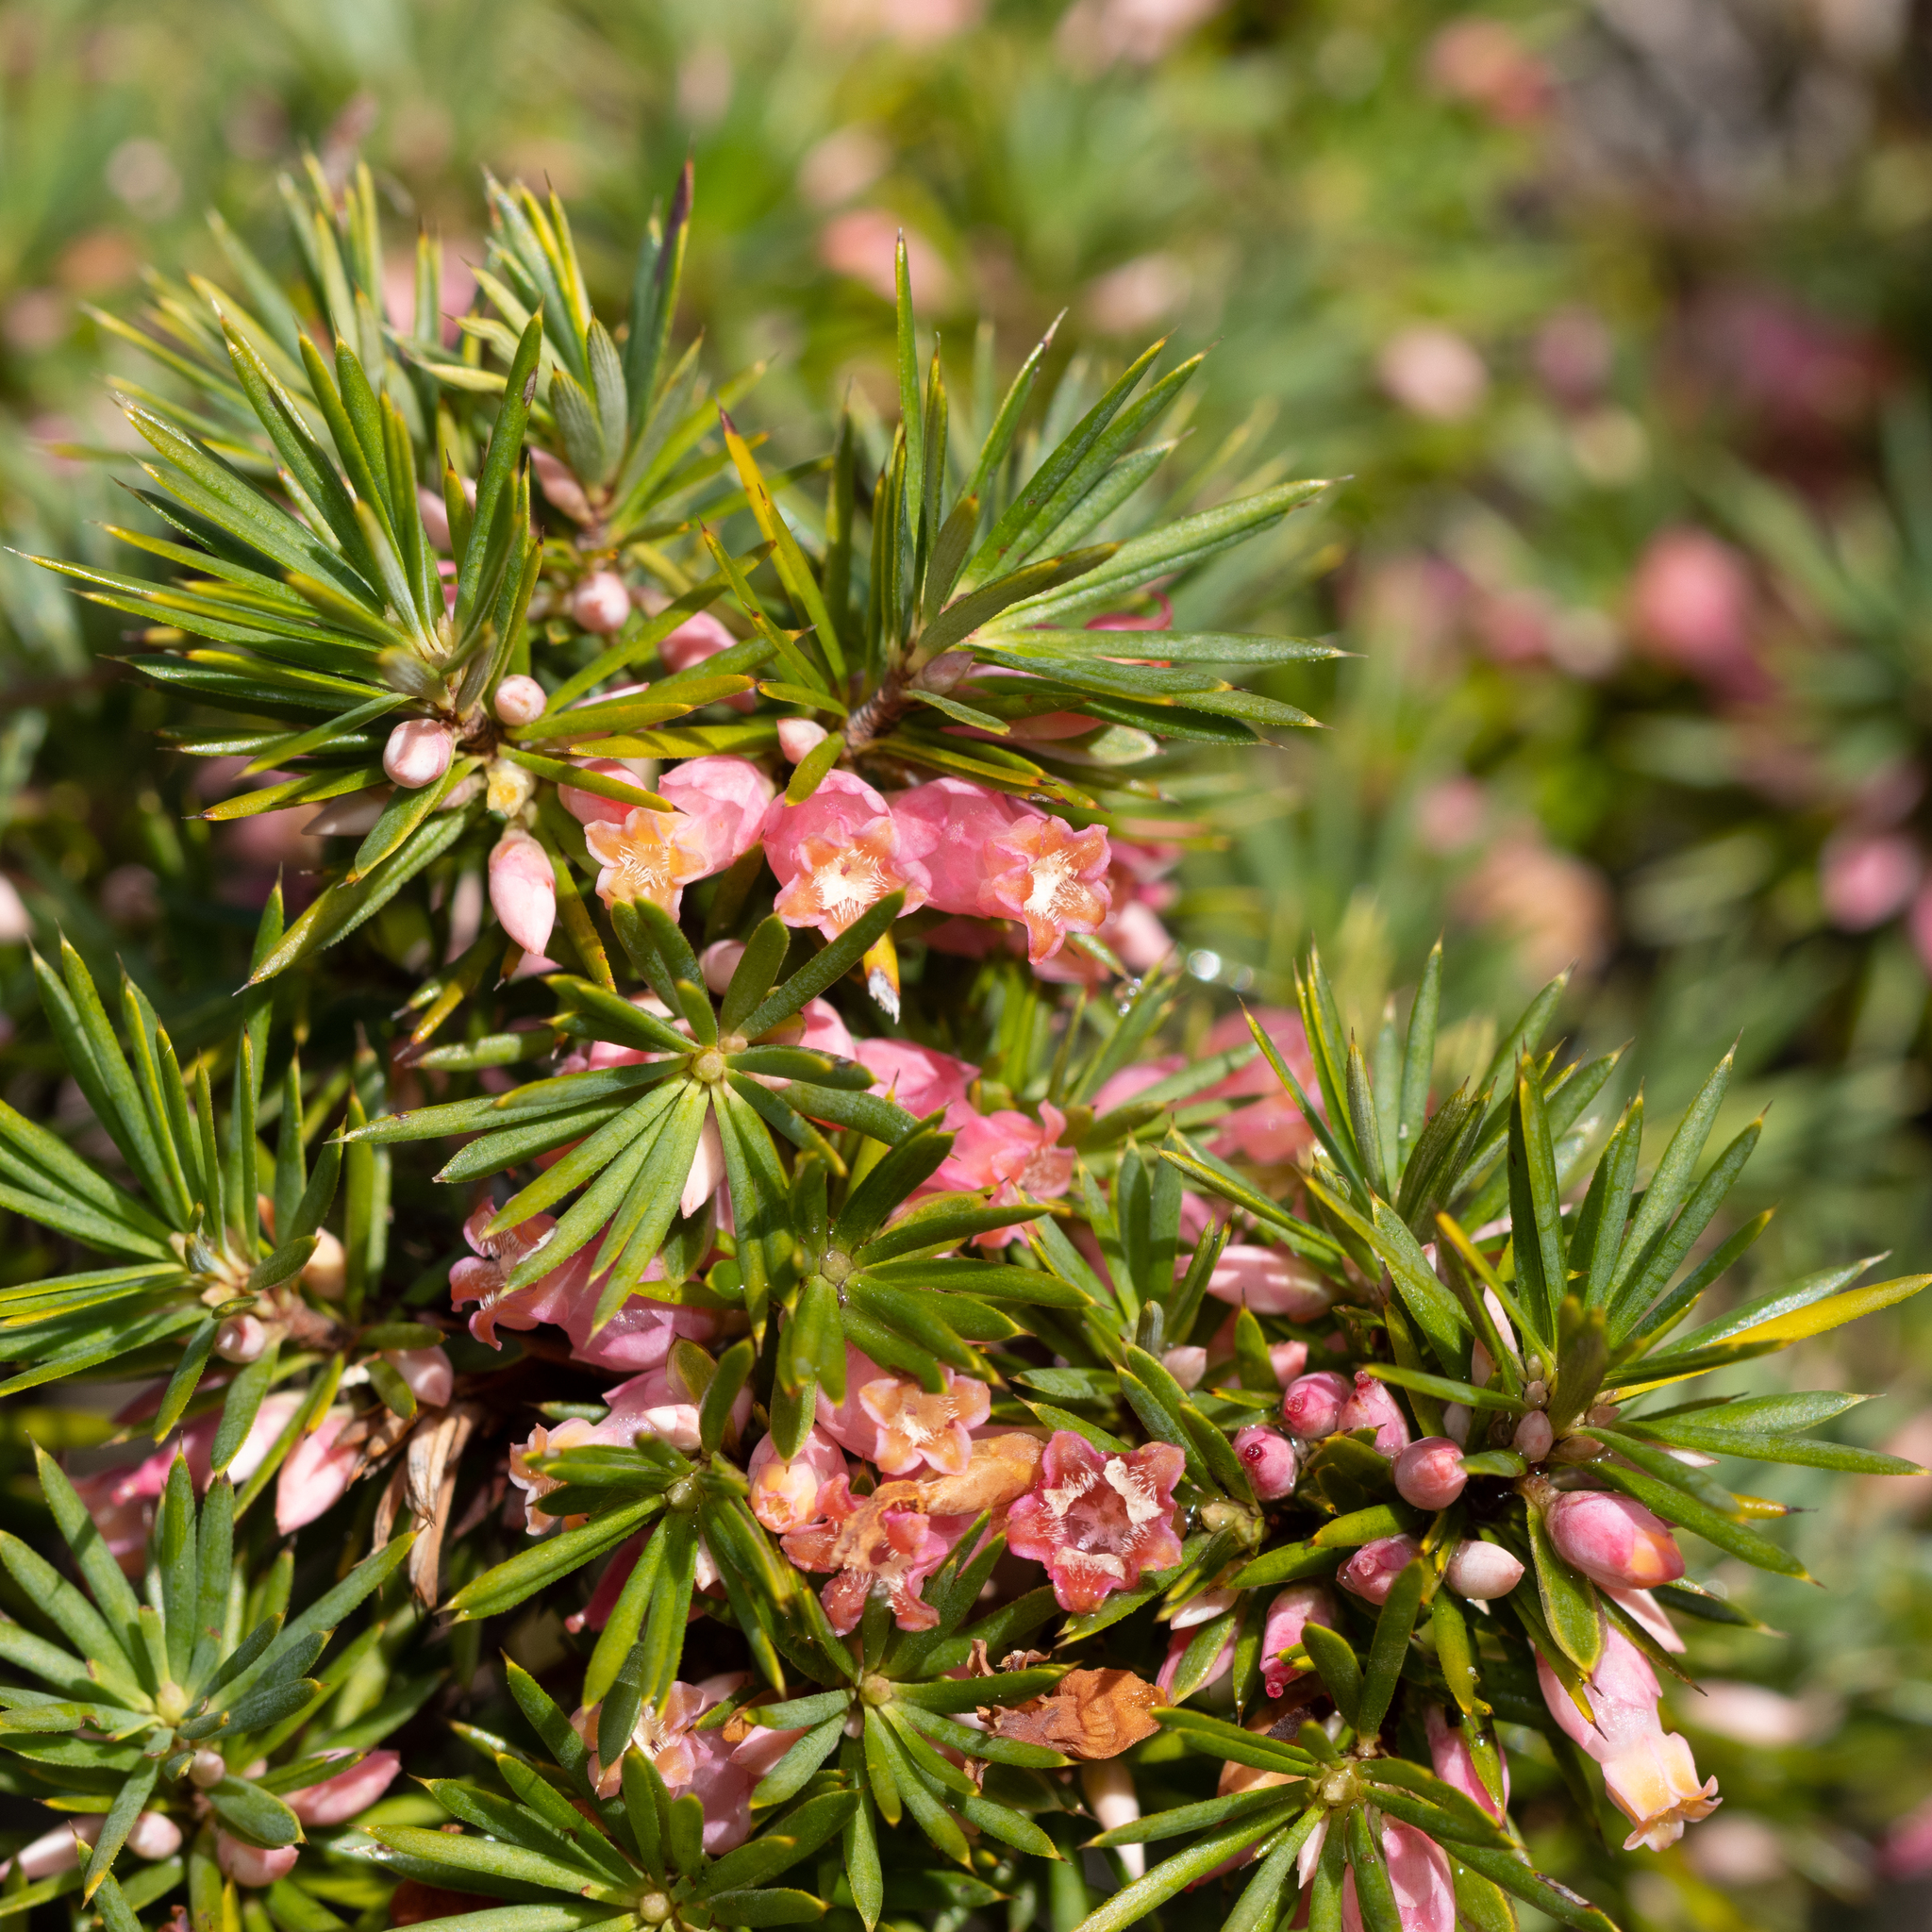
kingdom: Plantae
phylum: Tracheophyta
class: Magnoliopsida
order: Ericales
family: Ericaceae
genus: Brachyloma
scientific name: Brachyloma ericoides
